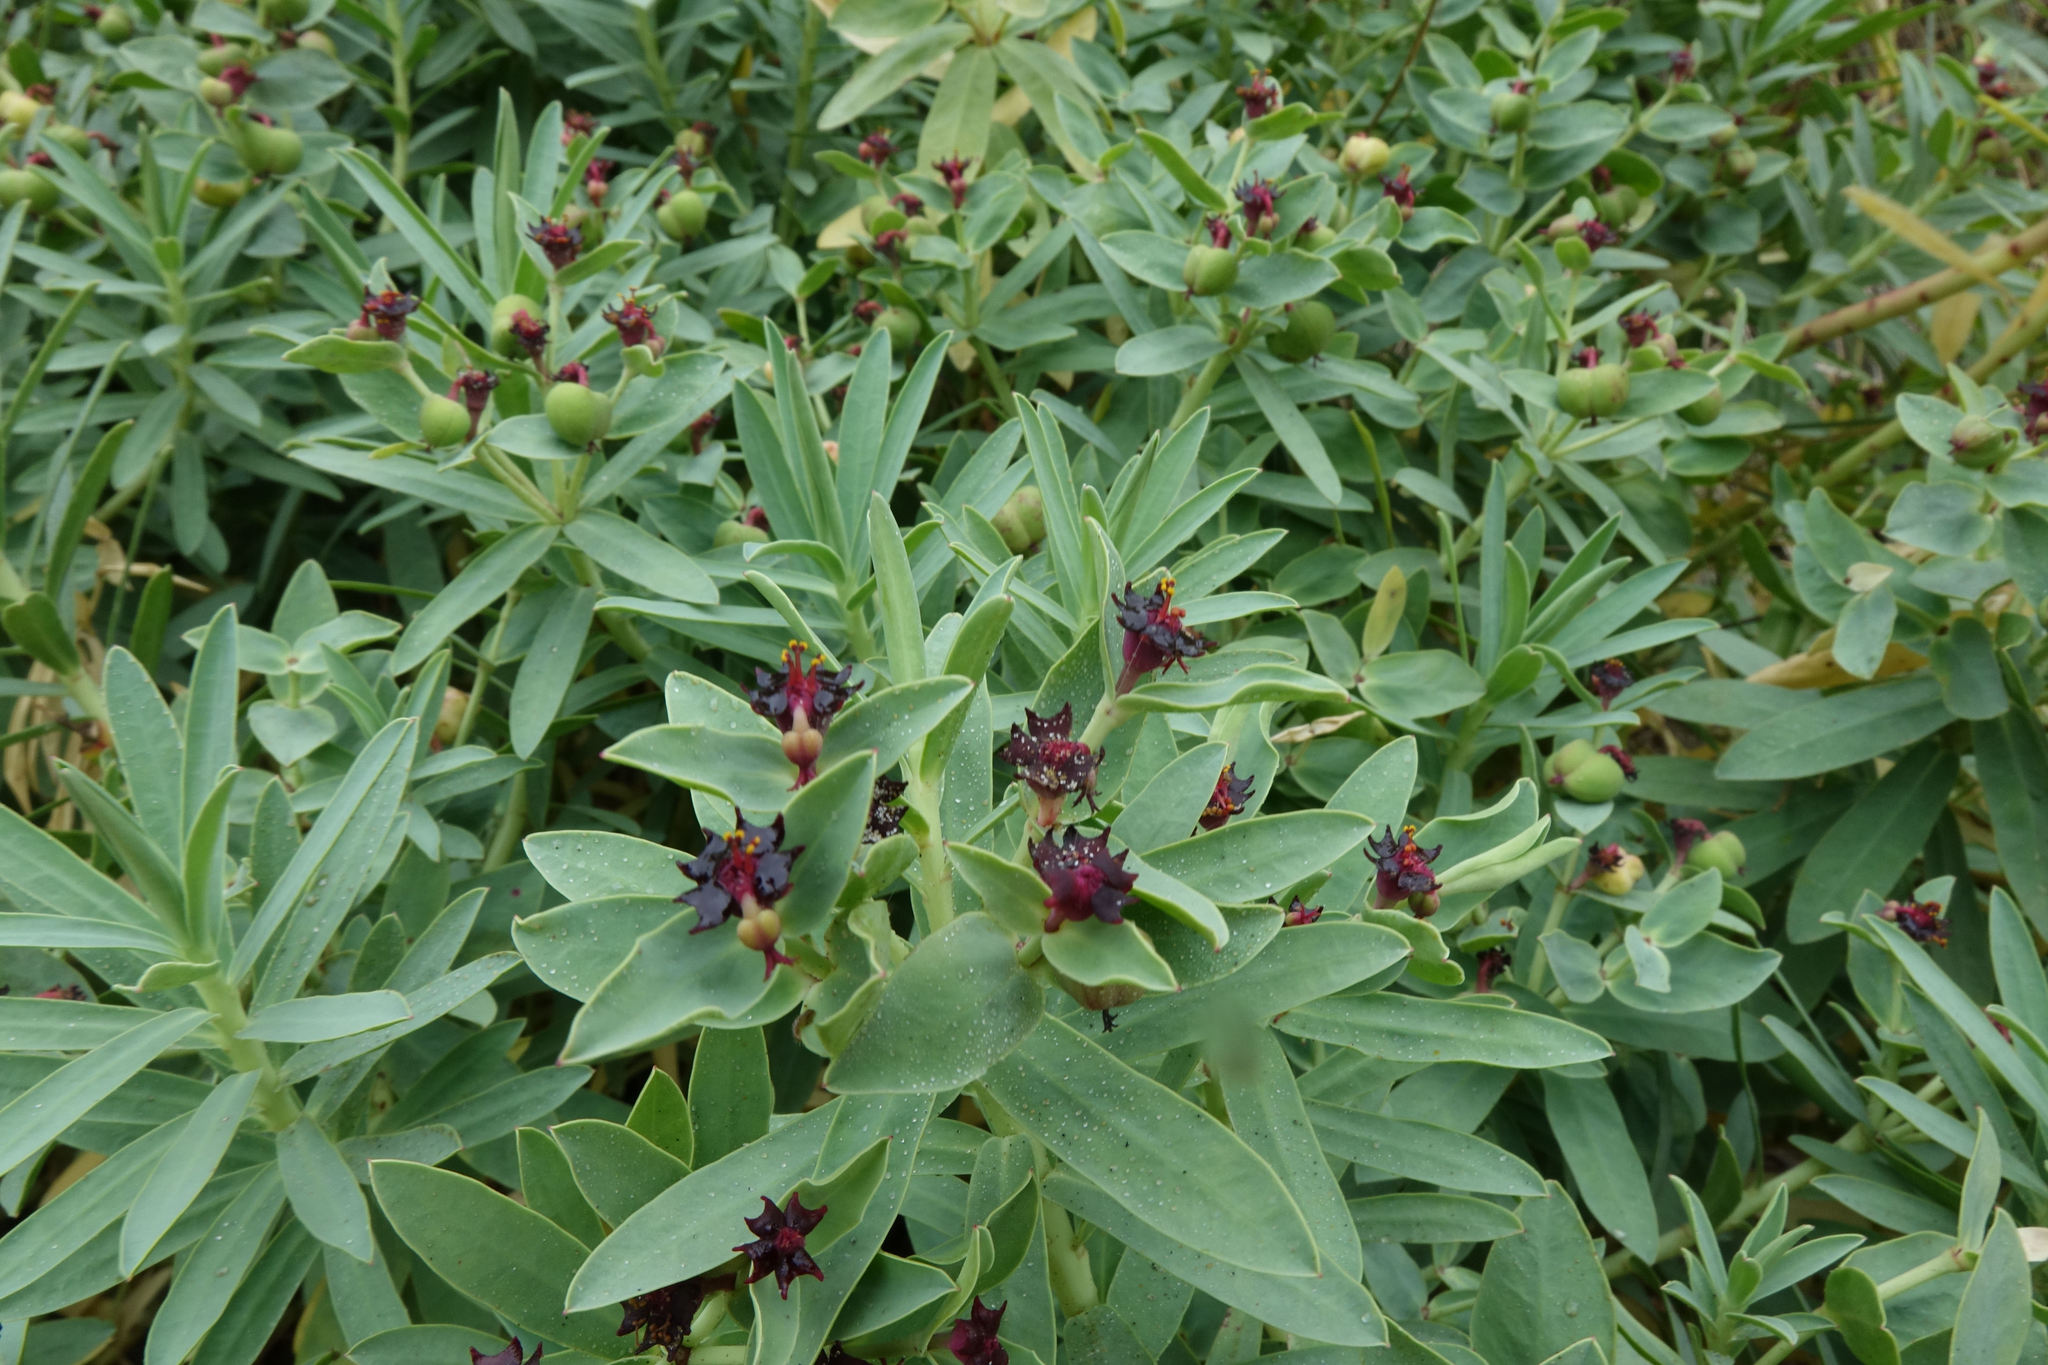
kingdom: Plantae
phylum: Tracheophyta
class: Magnoliopsida
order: Malpighiales
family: Euphorbiaceae
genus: Euphorbia
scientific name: Euphorbia glauca
